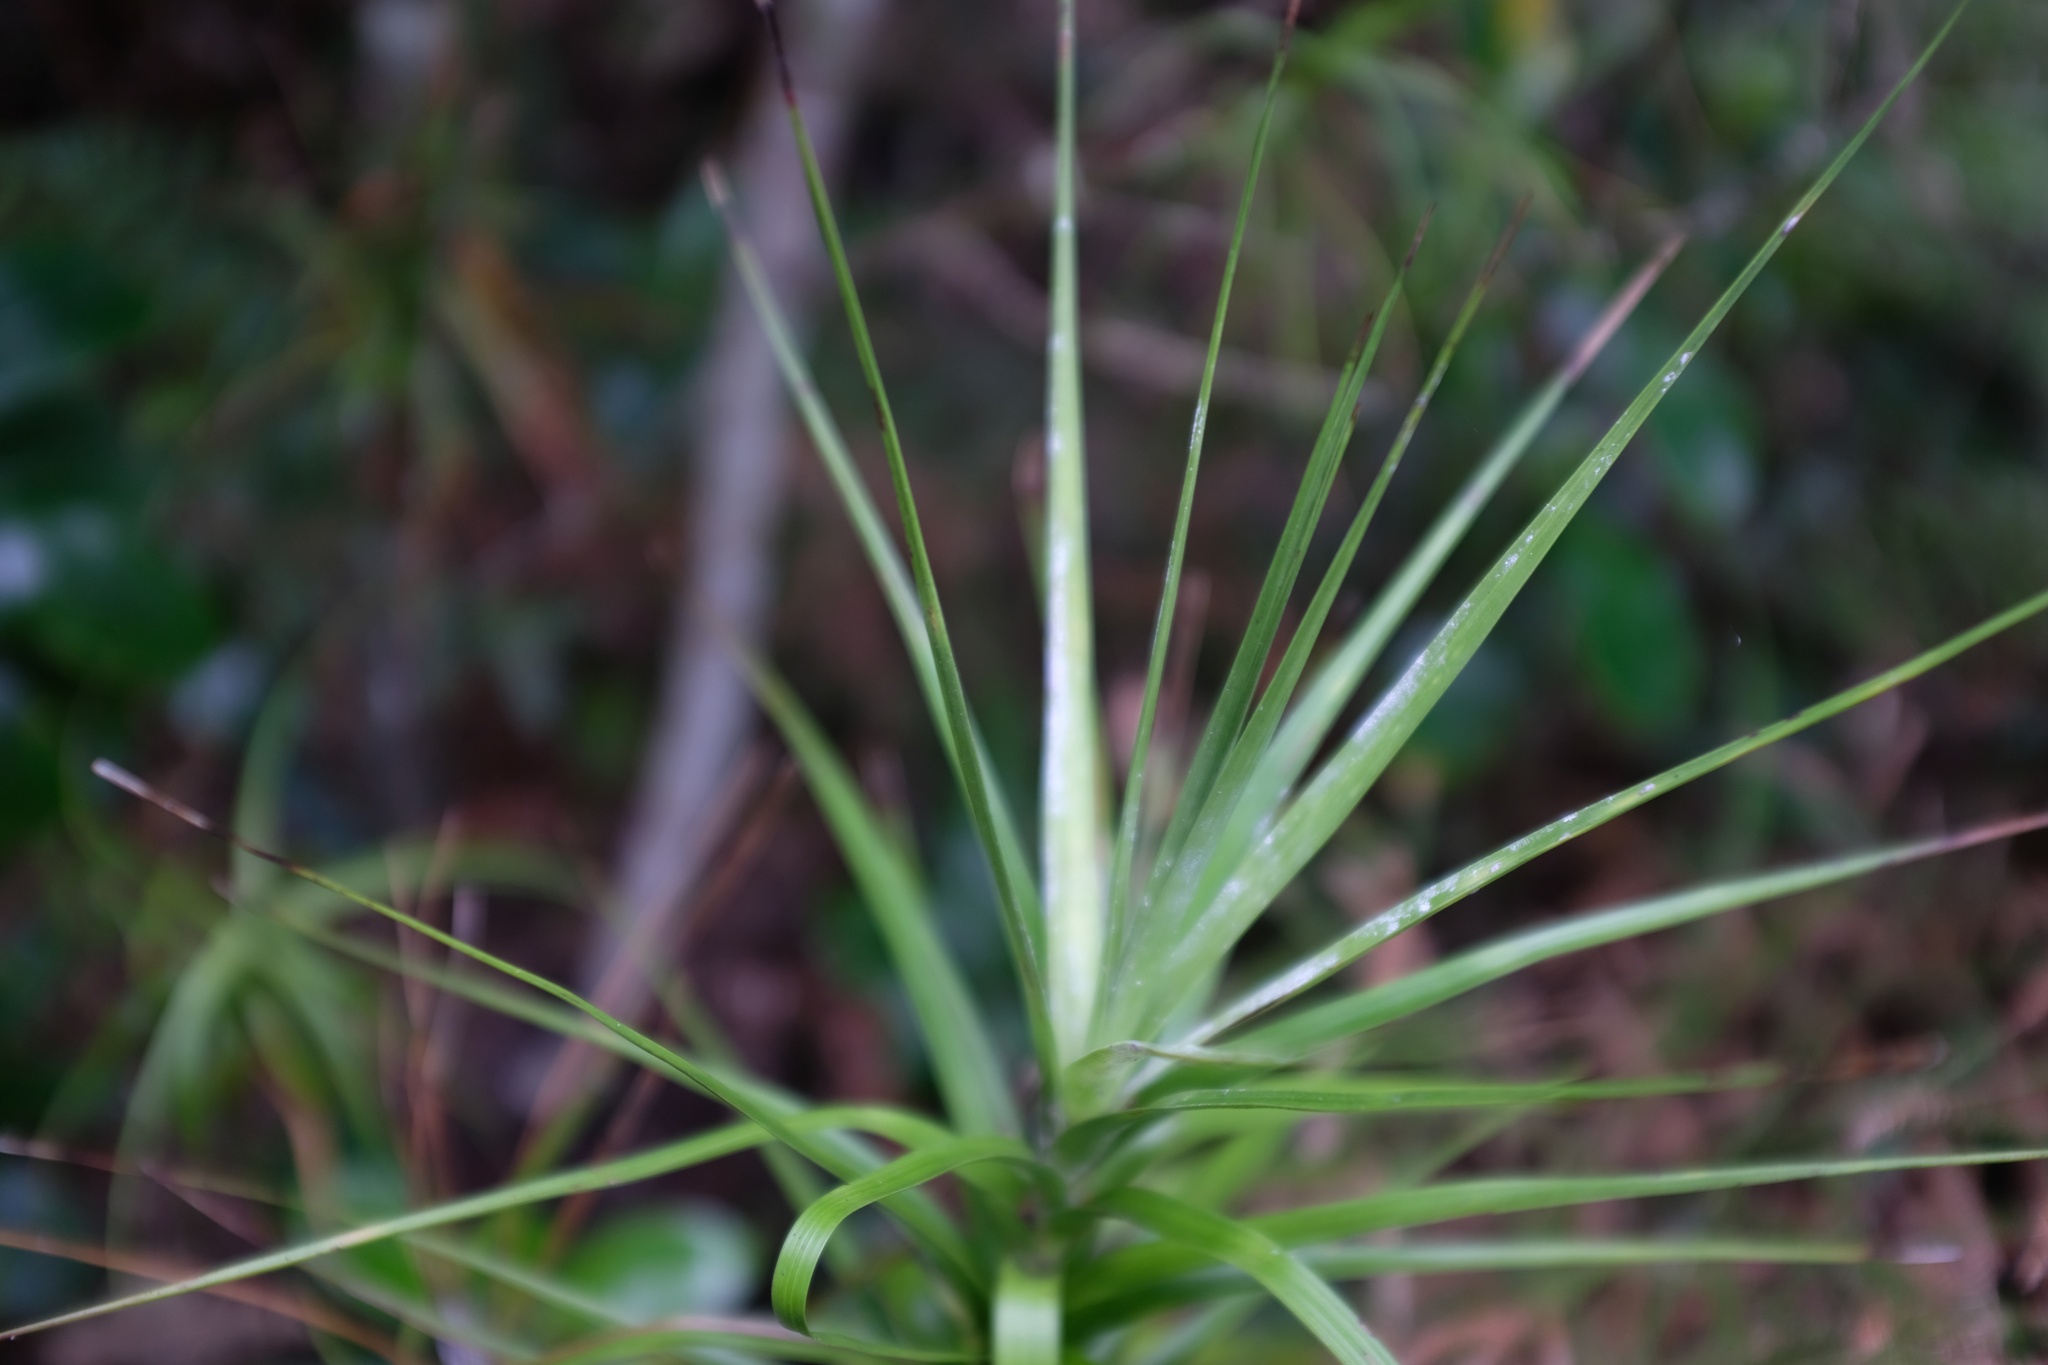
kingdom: Plantae
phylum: Tracheophyta
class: Magnoliopsida
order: Ericales
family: Ericaceae
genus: Dracophyllum
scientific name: Dracophyllum longifolium
